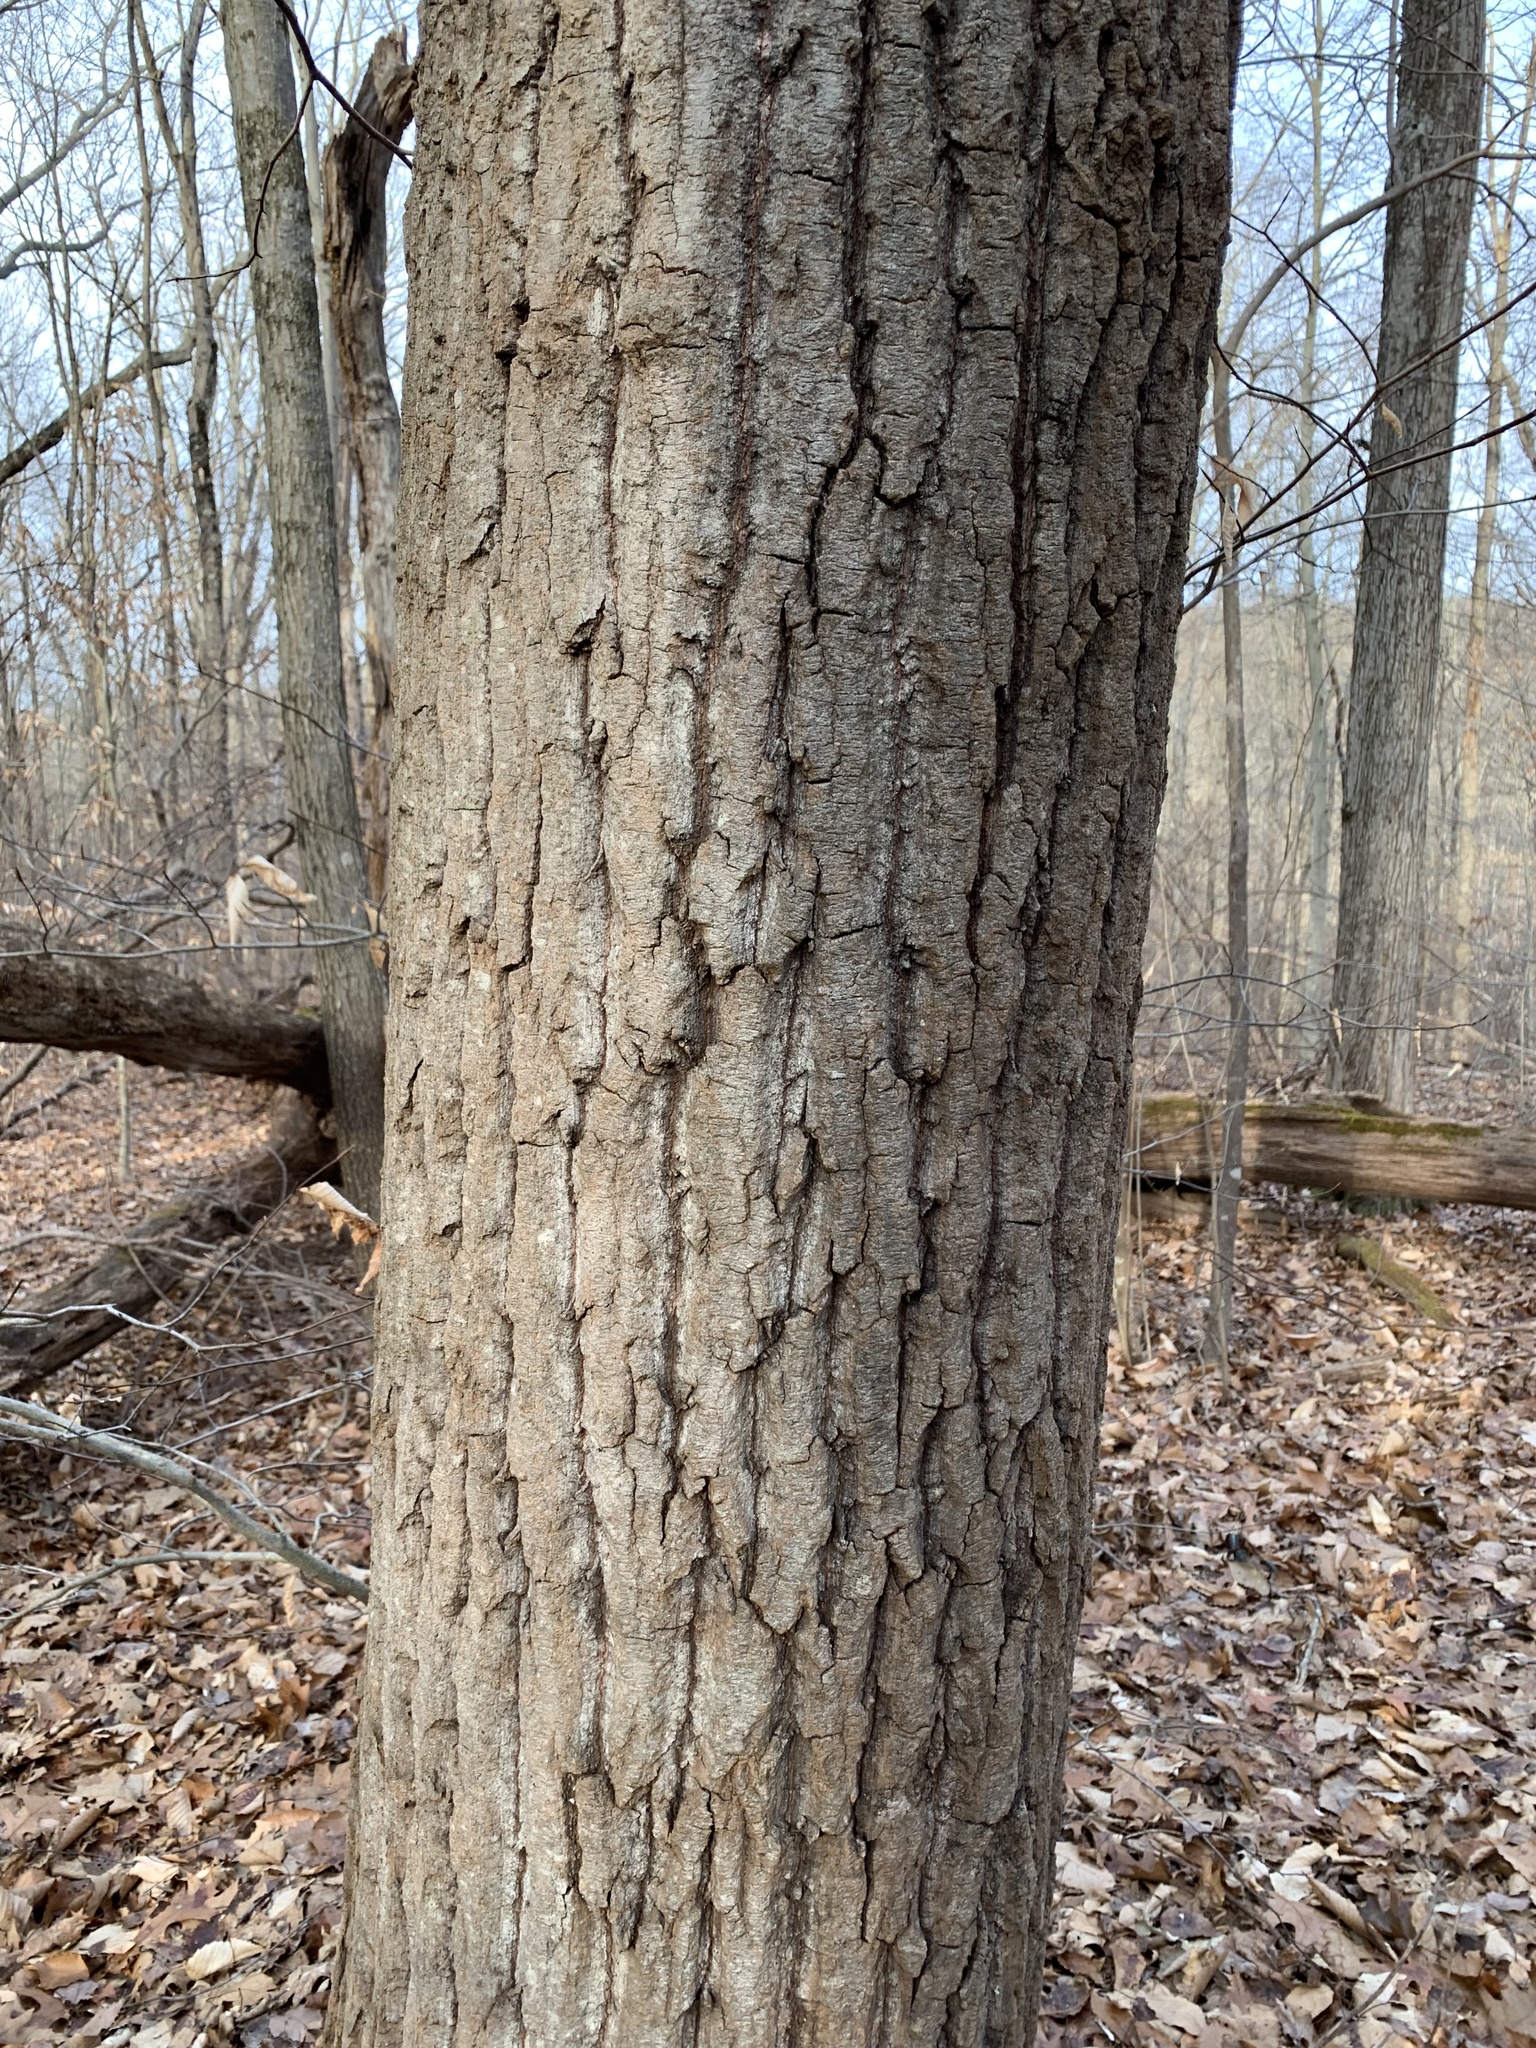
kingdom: Plantae
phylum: Tracheophyta
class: Magnoliopsida
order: Malpighiales
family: Salicaceae
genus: Populus
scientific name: Populus grandidentata
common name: Bigtooth aspen
